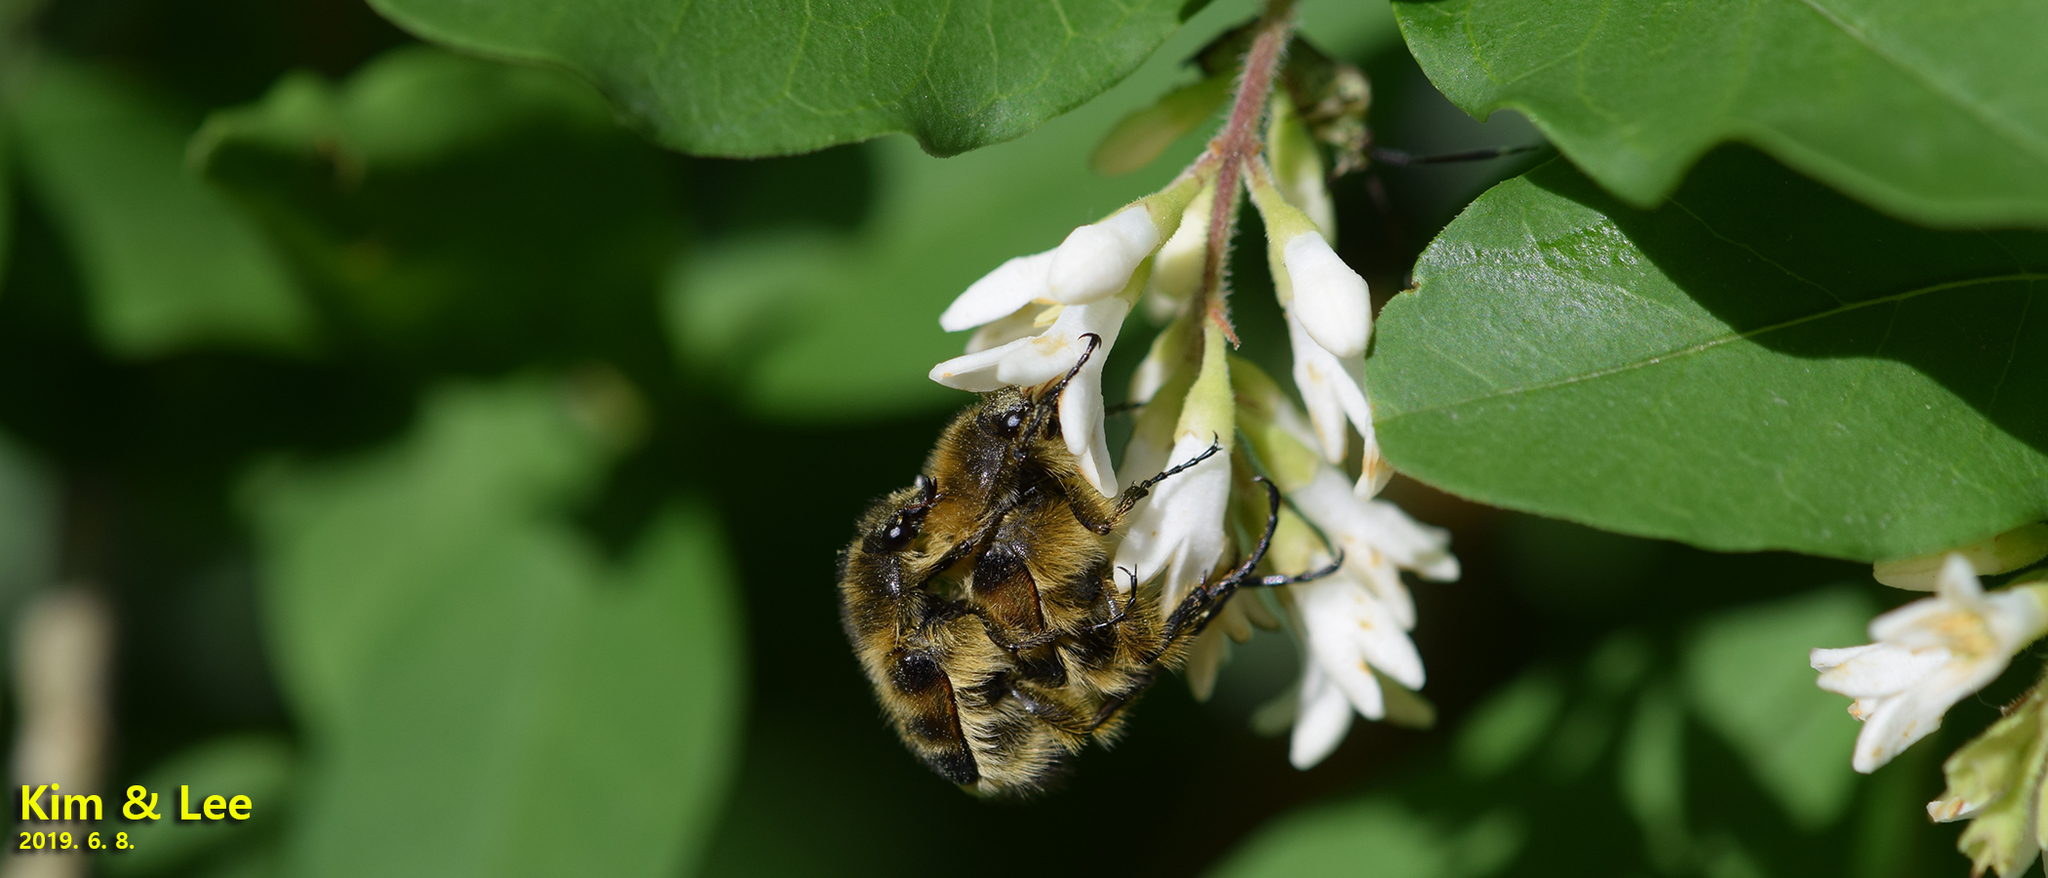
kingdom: Animalia
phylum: Arthropoda
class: Insecta
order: Coleoptera
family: Scarabaeidae
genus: Lasiotrichius
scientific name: Lasiotrichius succinctus
